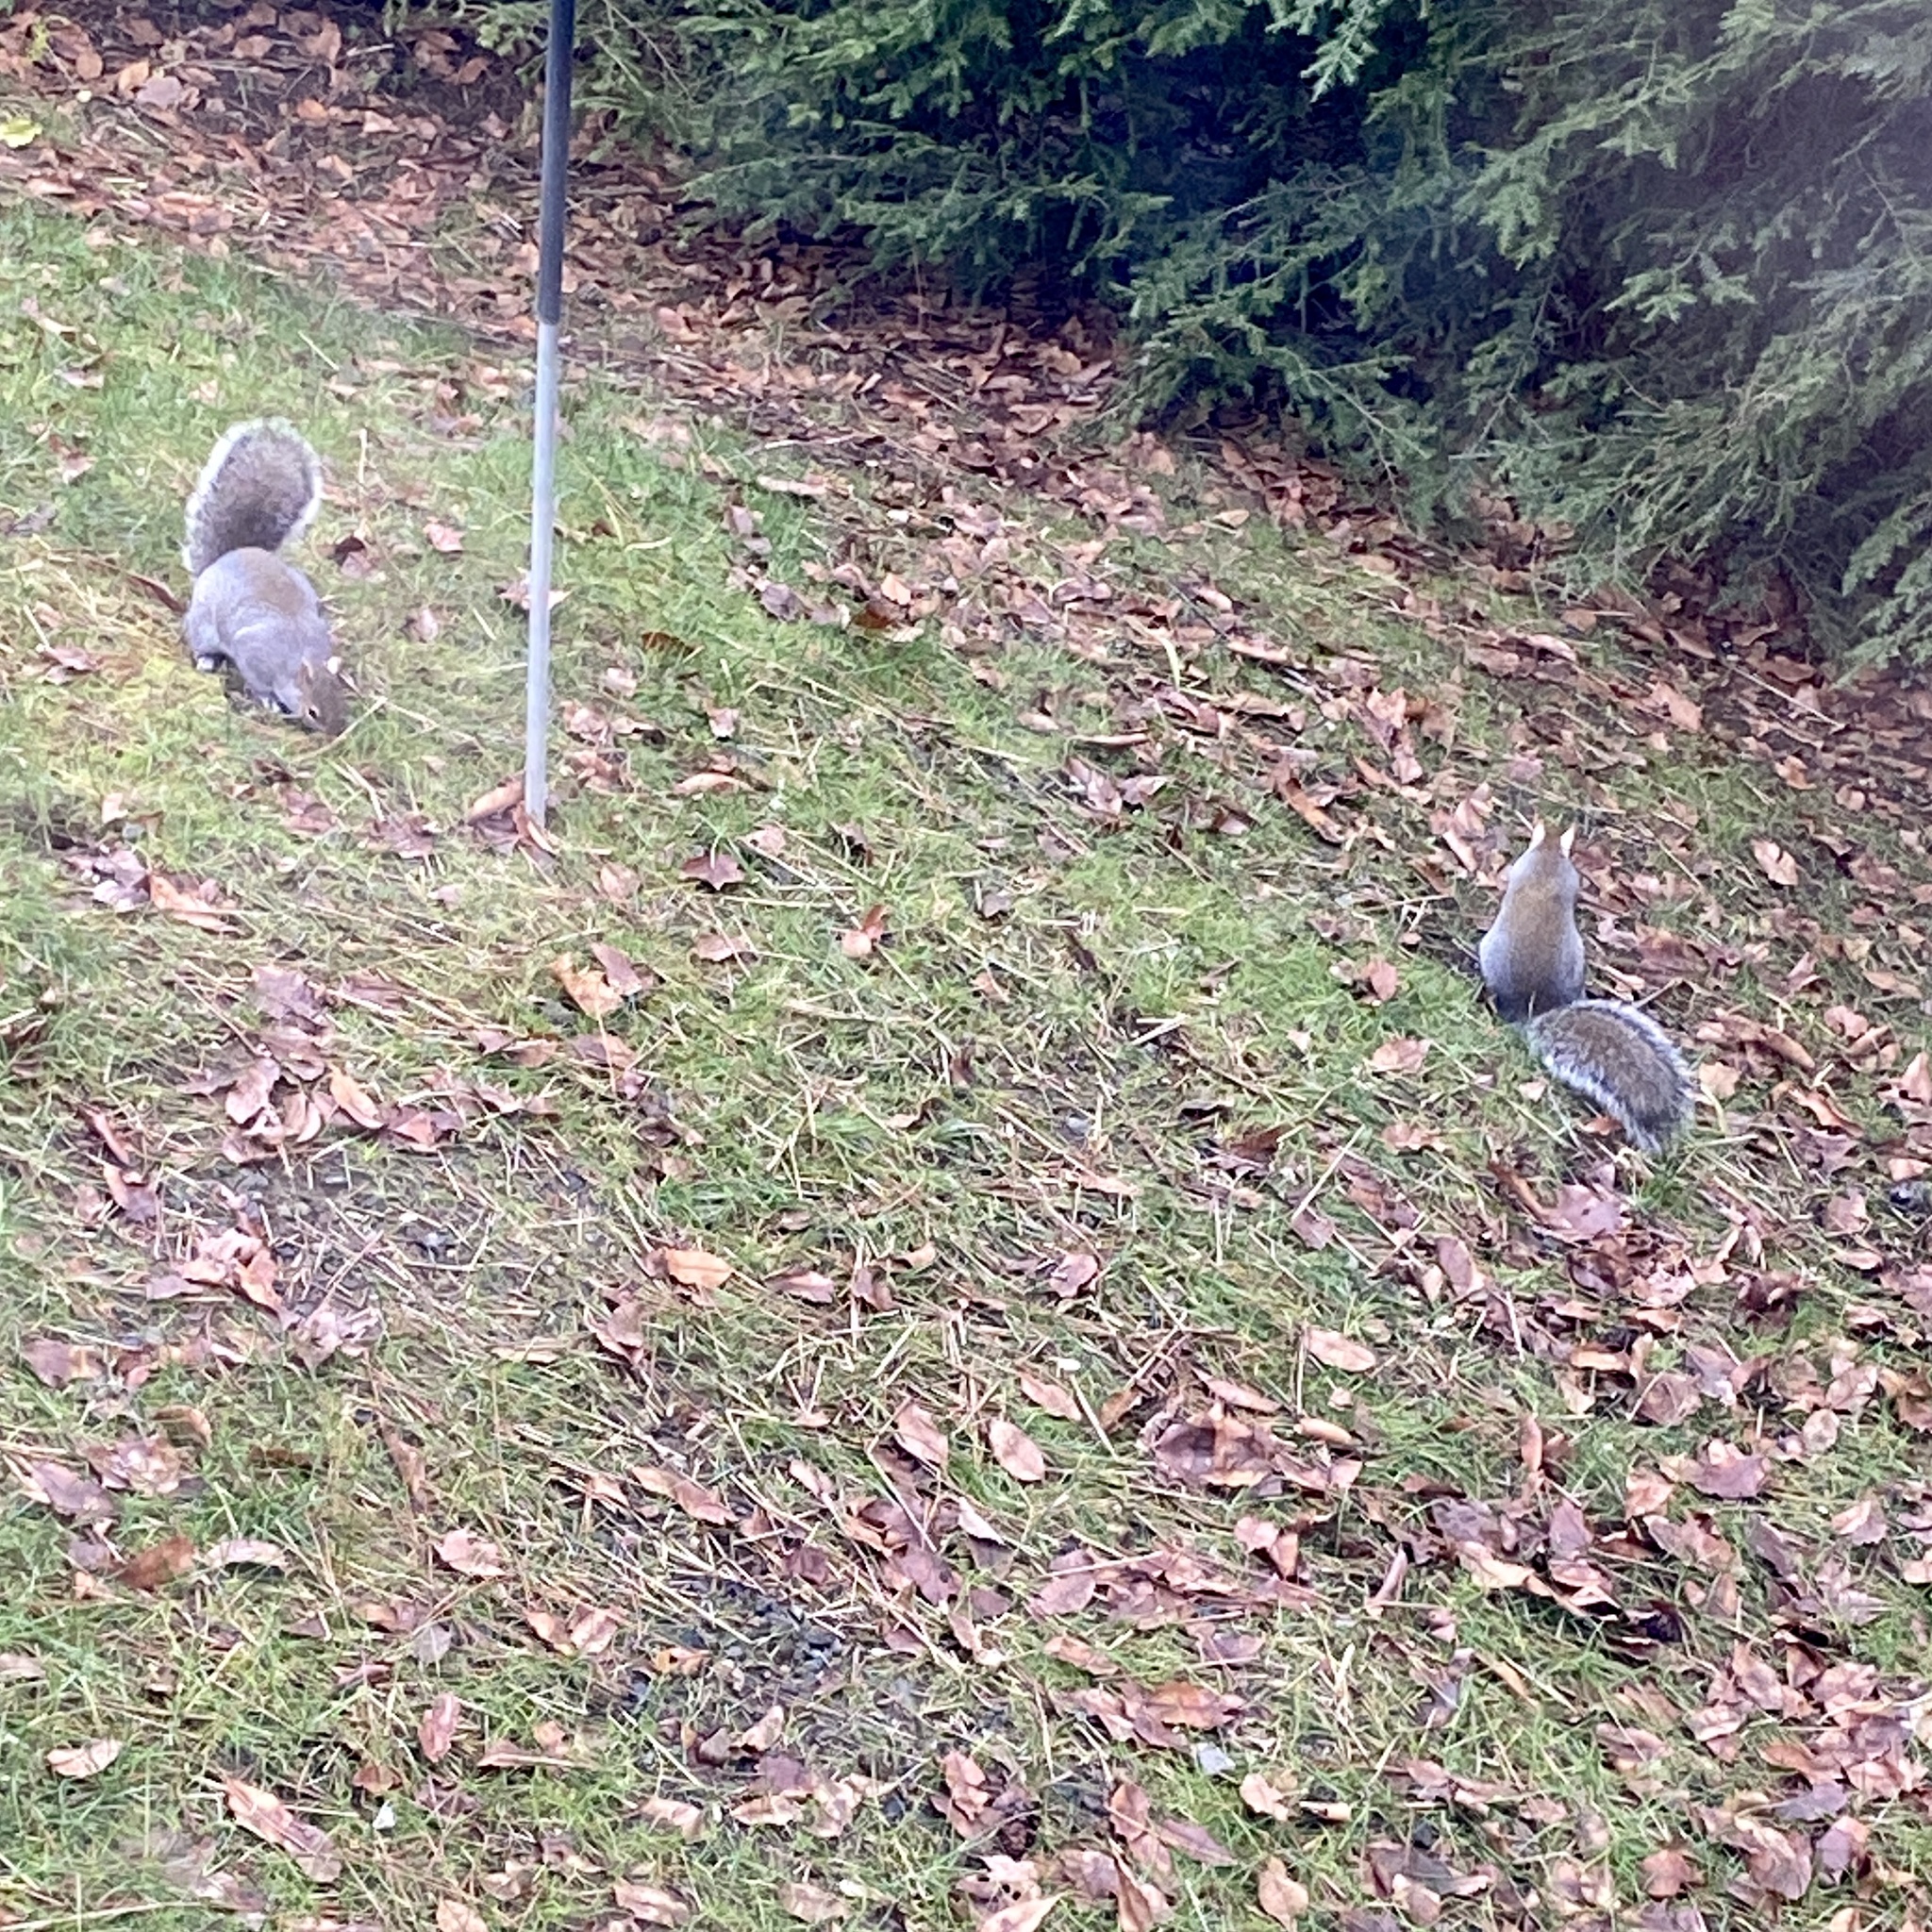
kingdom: Animalia
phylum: Chordata
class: Mammalia
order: Rodentia
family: Sciuridae
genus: Sciurus
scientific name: Sciurus carolinensis
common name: Eastern gray squirrel
